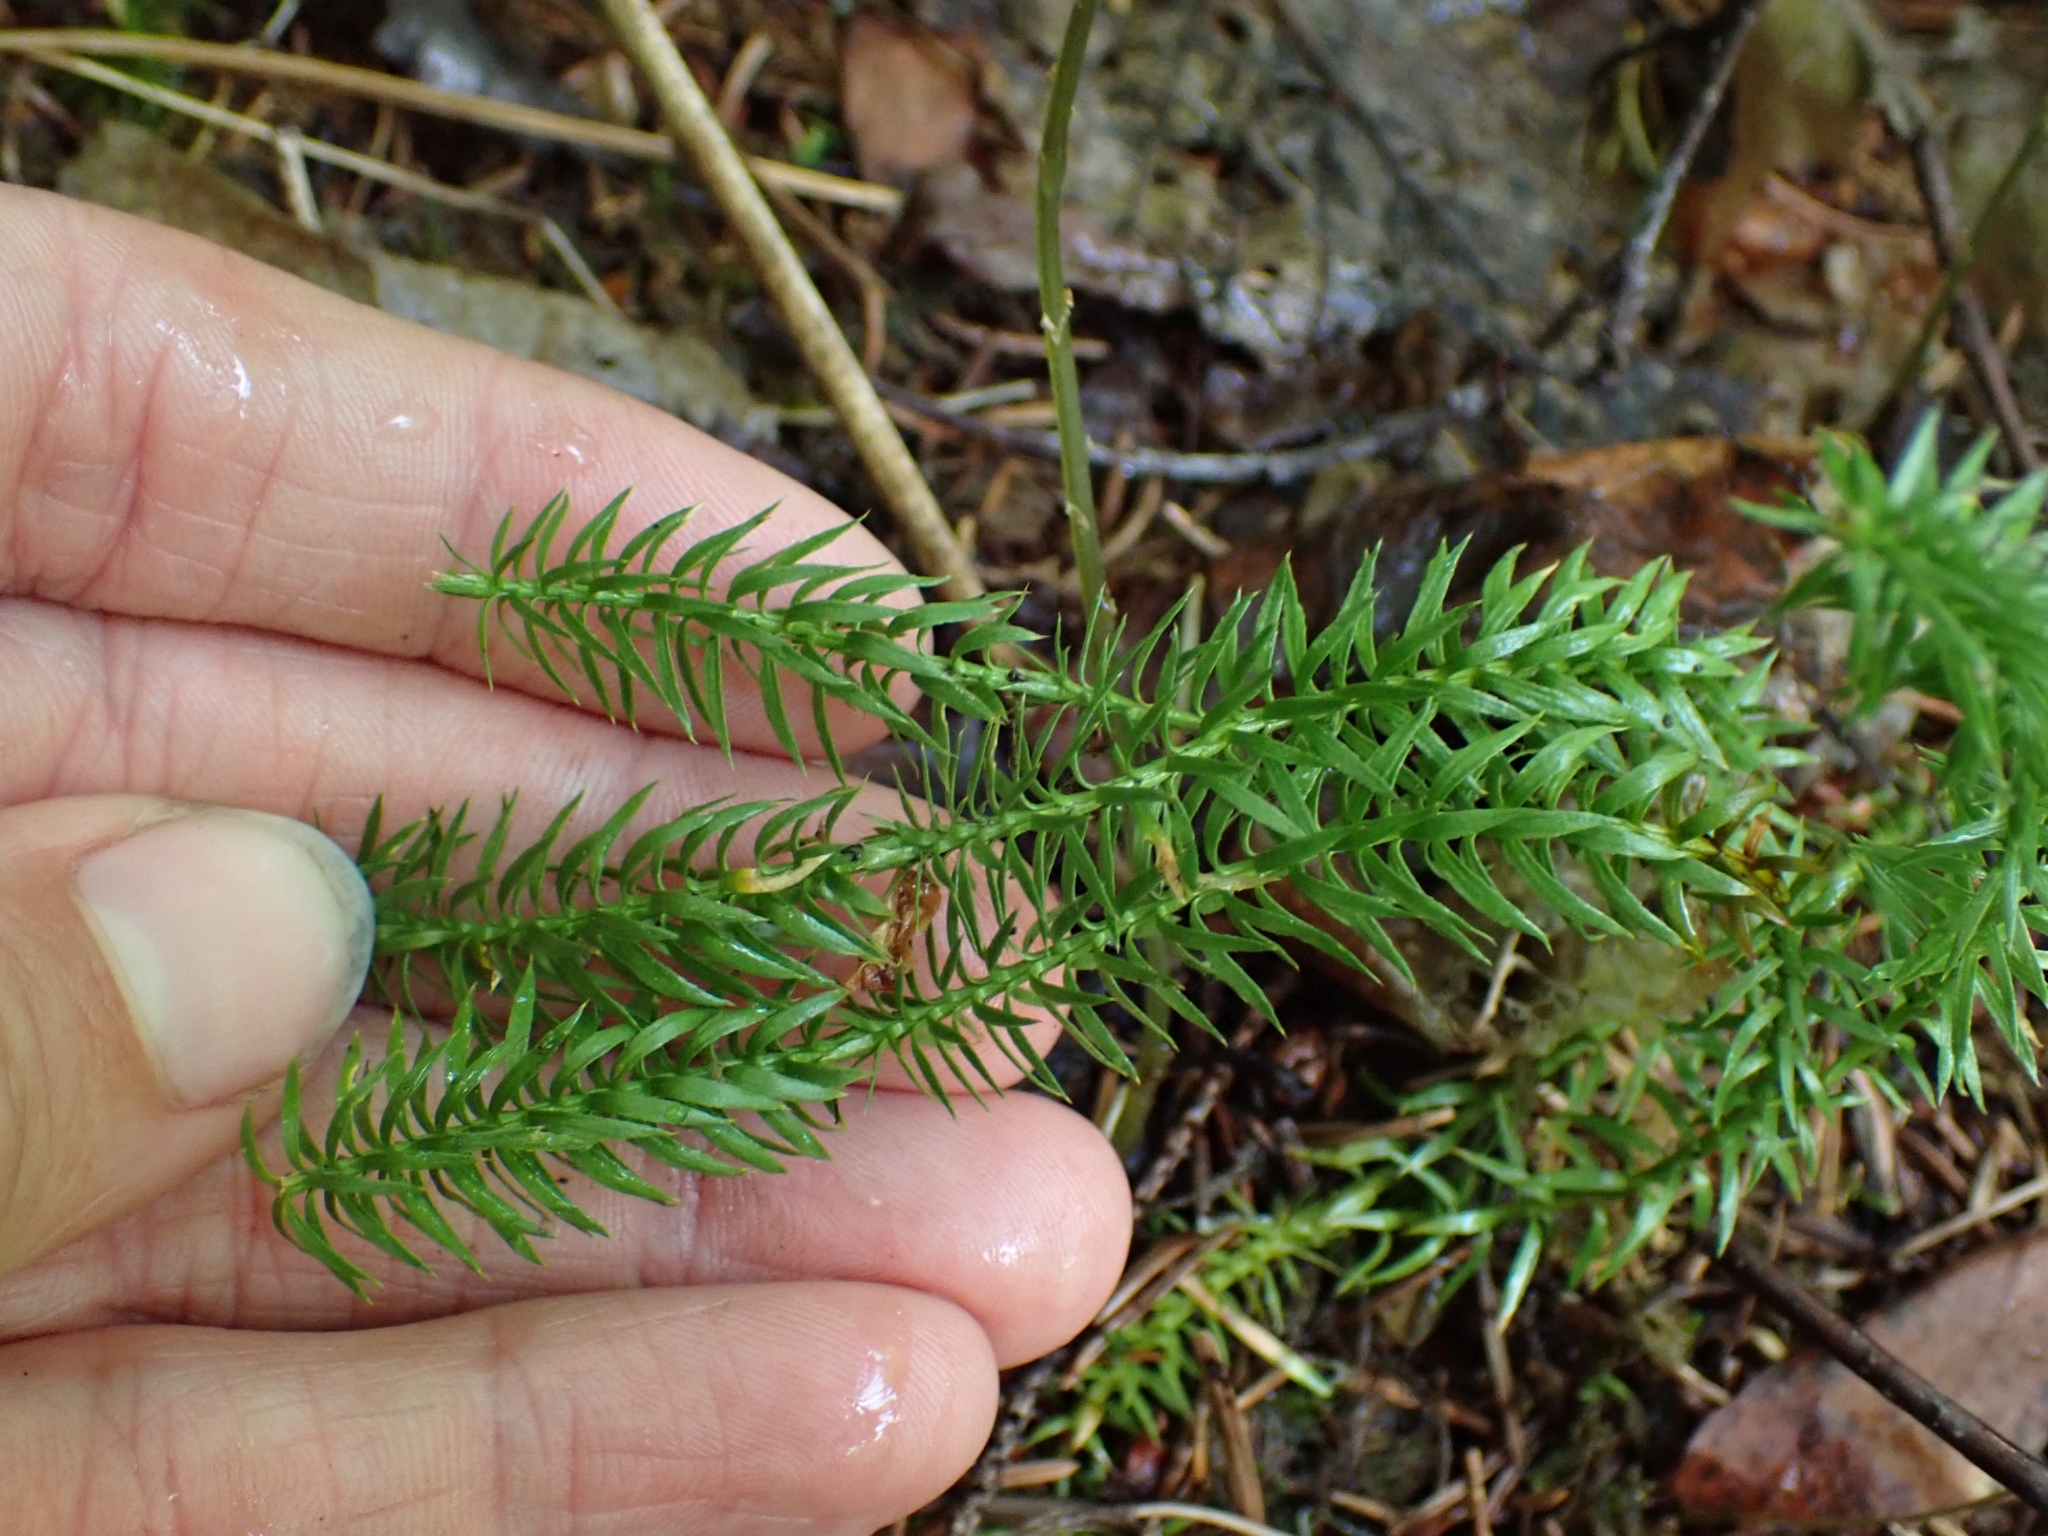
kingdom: Plantae
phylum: Tracheophyta
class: Lycopodiopsida
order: Lycopodiales
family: Lycopodiaceae
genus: Spinulum
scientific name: Spinulum annotinum
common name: Interrupted club-moss
